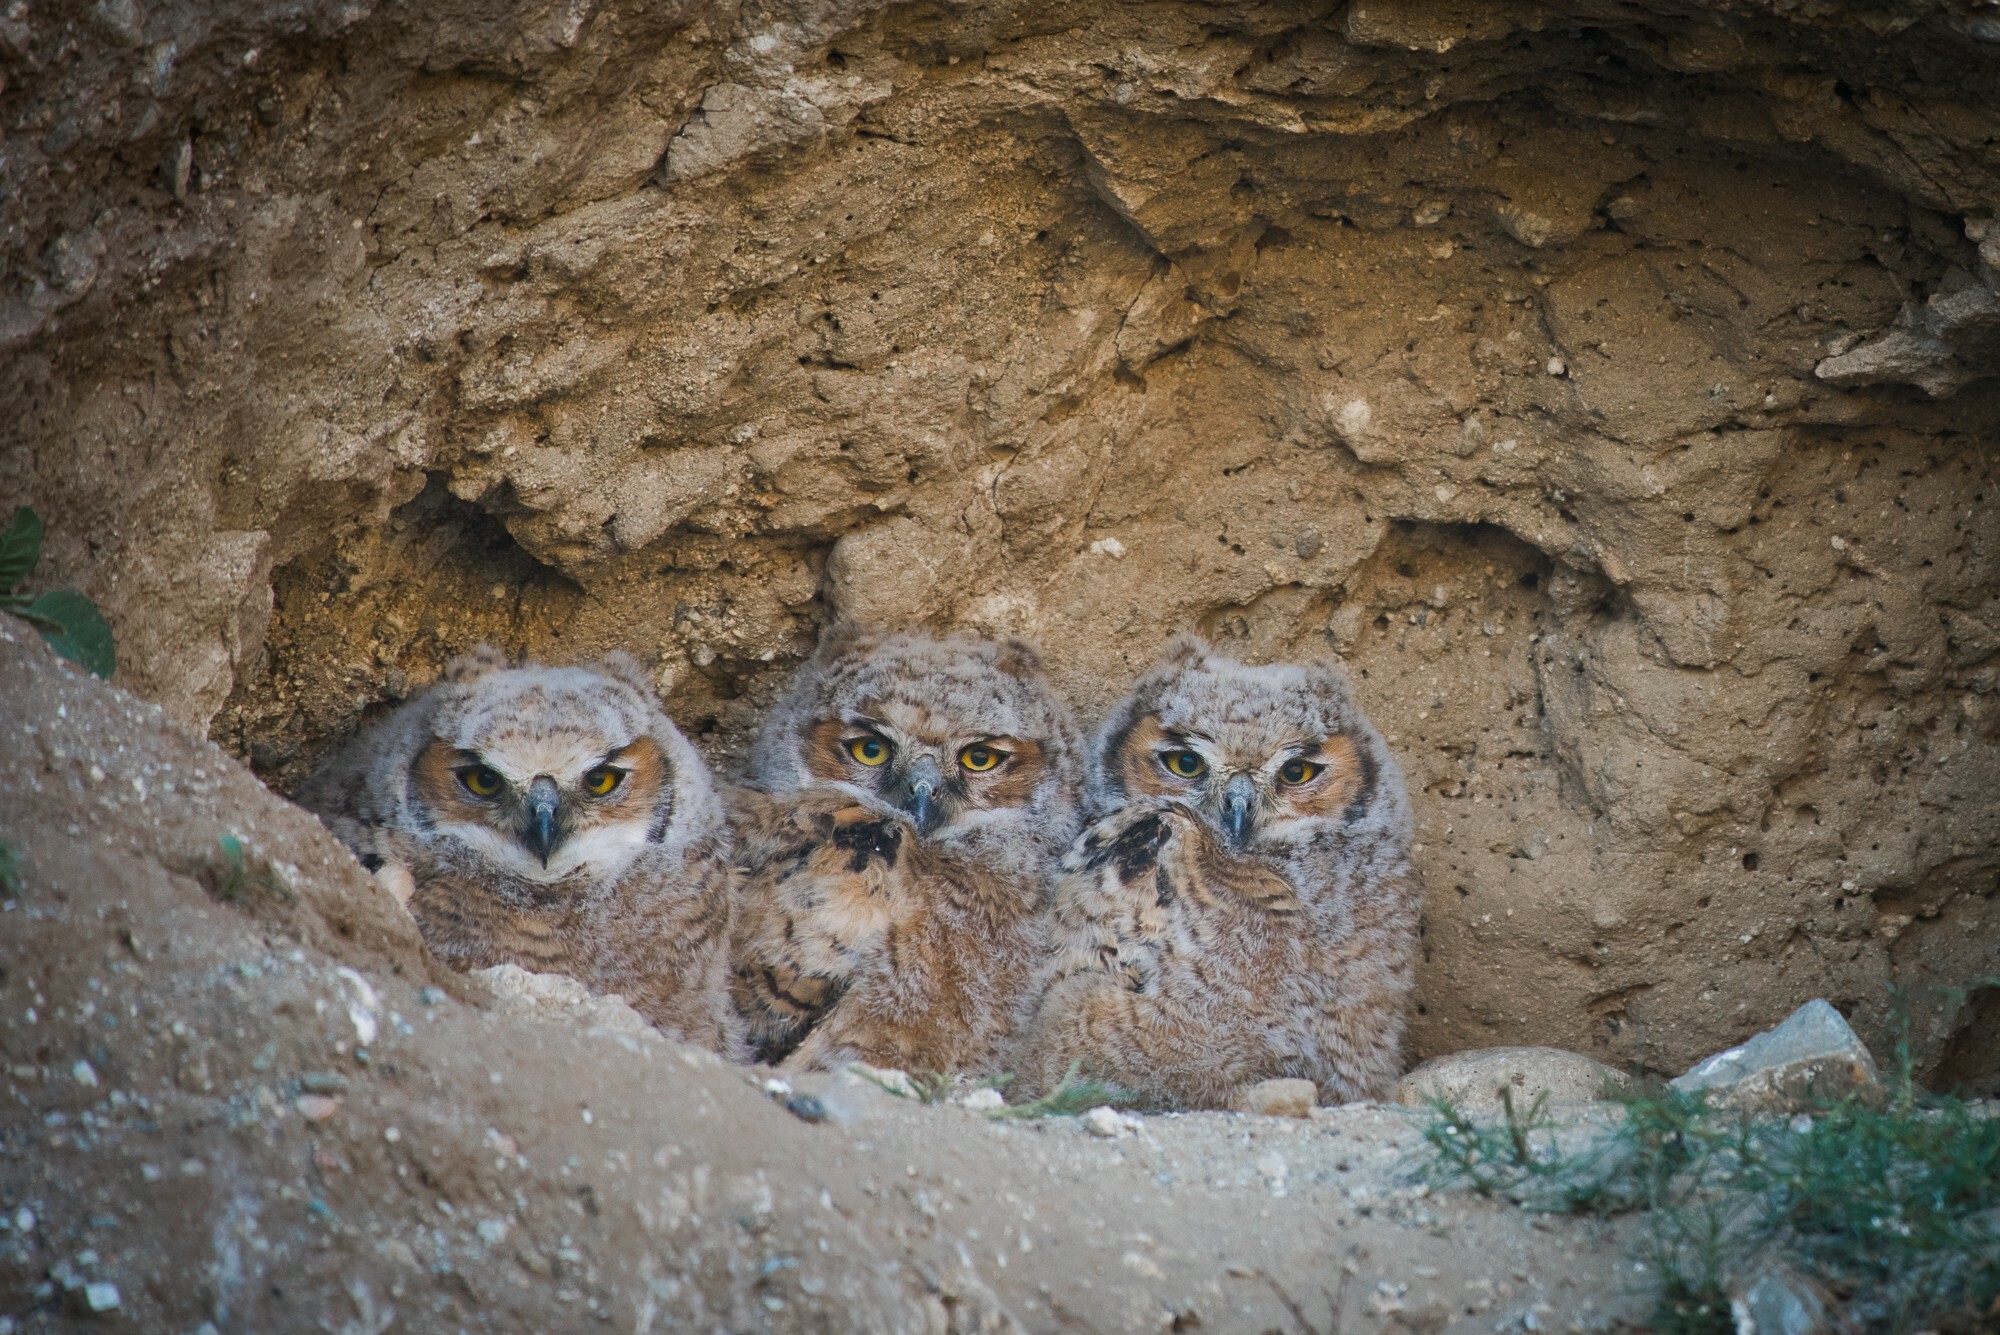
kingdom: Animalia
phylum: Chordata
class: Aves
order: Strigiformes
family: Strigidae
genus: Bubo
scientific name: Bubo virginianus
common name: Great horned owl
